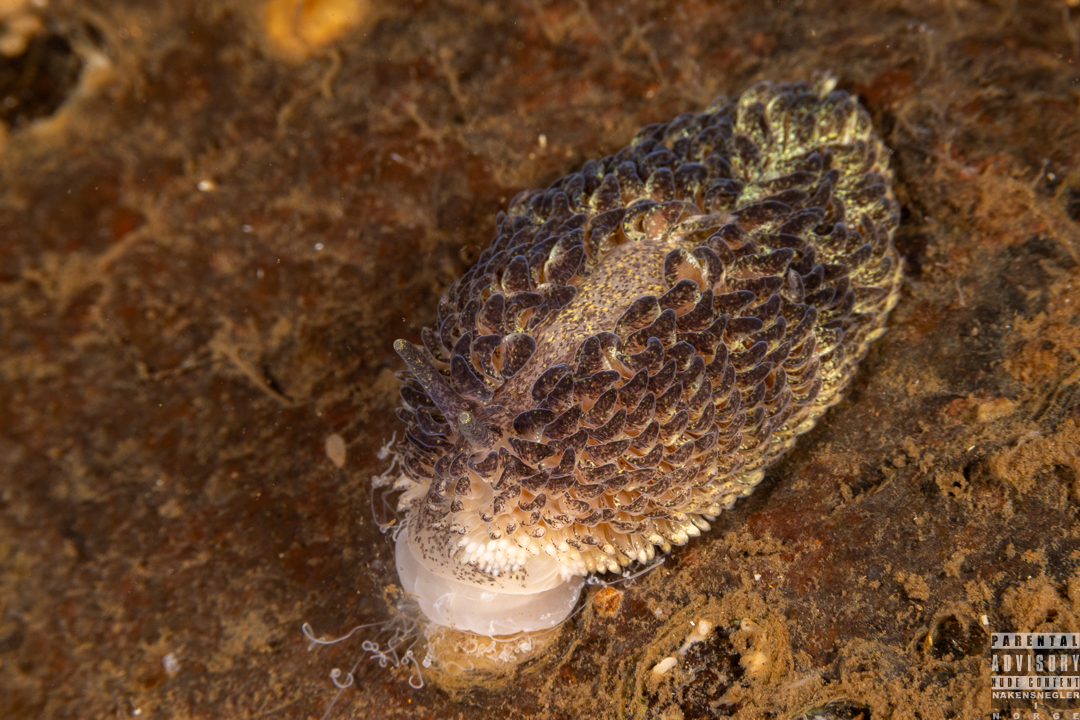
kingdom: Animalia
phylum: Mollusca
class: Gastropoda
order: Nudibranchia
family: Aeolidiidae
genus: Aeolidia
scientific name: Aeolidia papillosa
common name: Common grey sea slug
